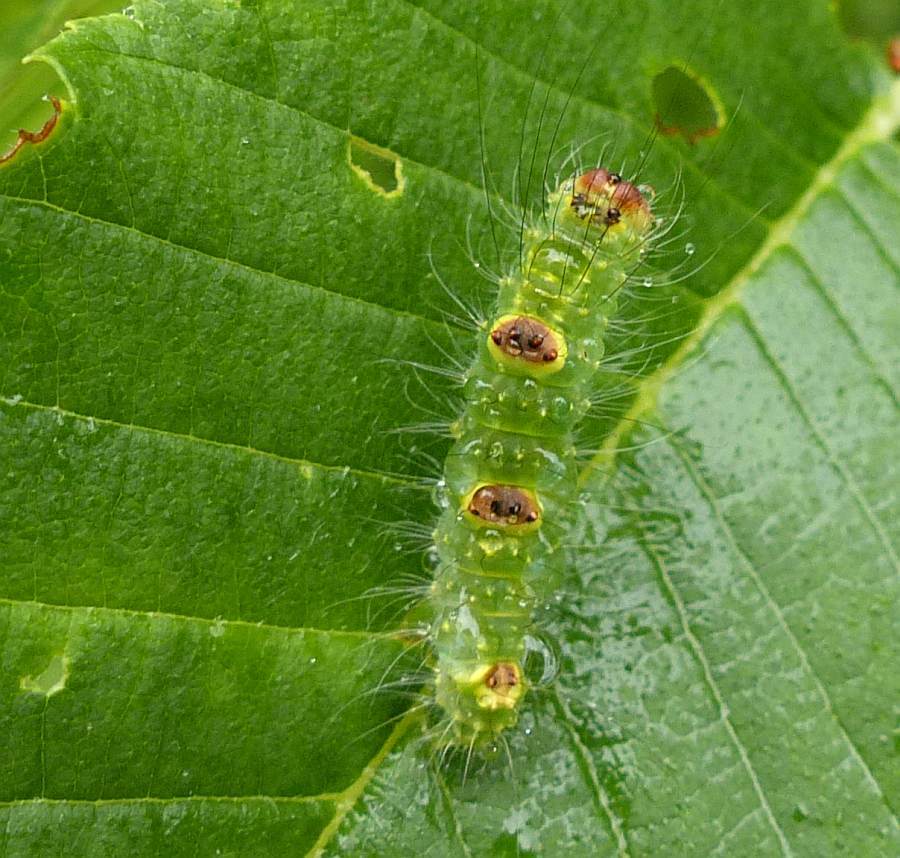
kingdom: Animalia
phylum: Arthropoda
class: Insecta
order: Lepidoptera
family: Noctuidae
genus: Acronicta
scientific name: Acronicta morula
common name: Ochre dagger
